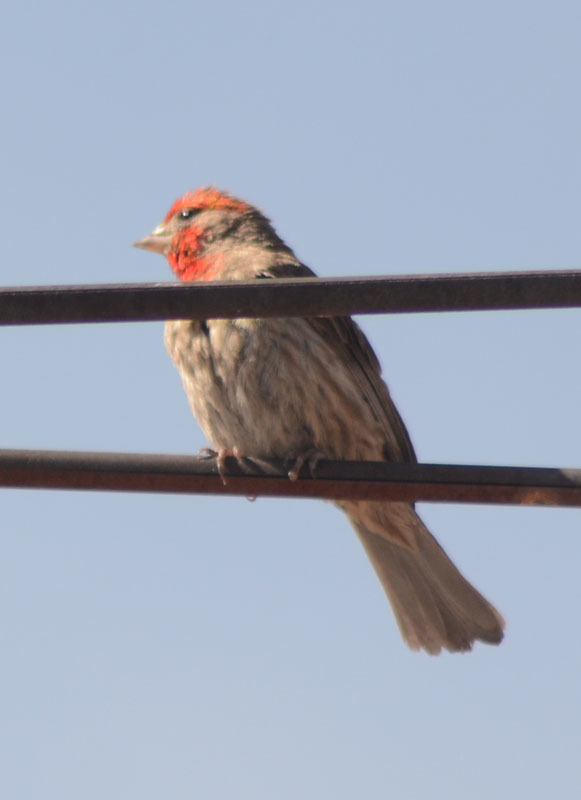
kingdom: Animalia
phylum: Chordata
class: Aves
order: Passeriformes
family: Fringillidae
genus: Haemorhous
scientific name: Haemorhous mexicanus
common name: House finch
